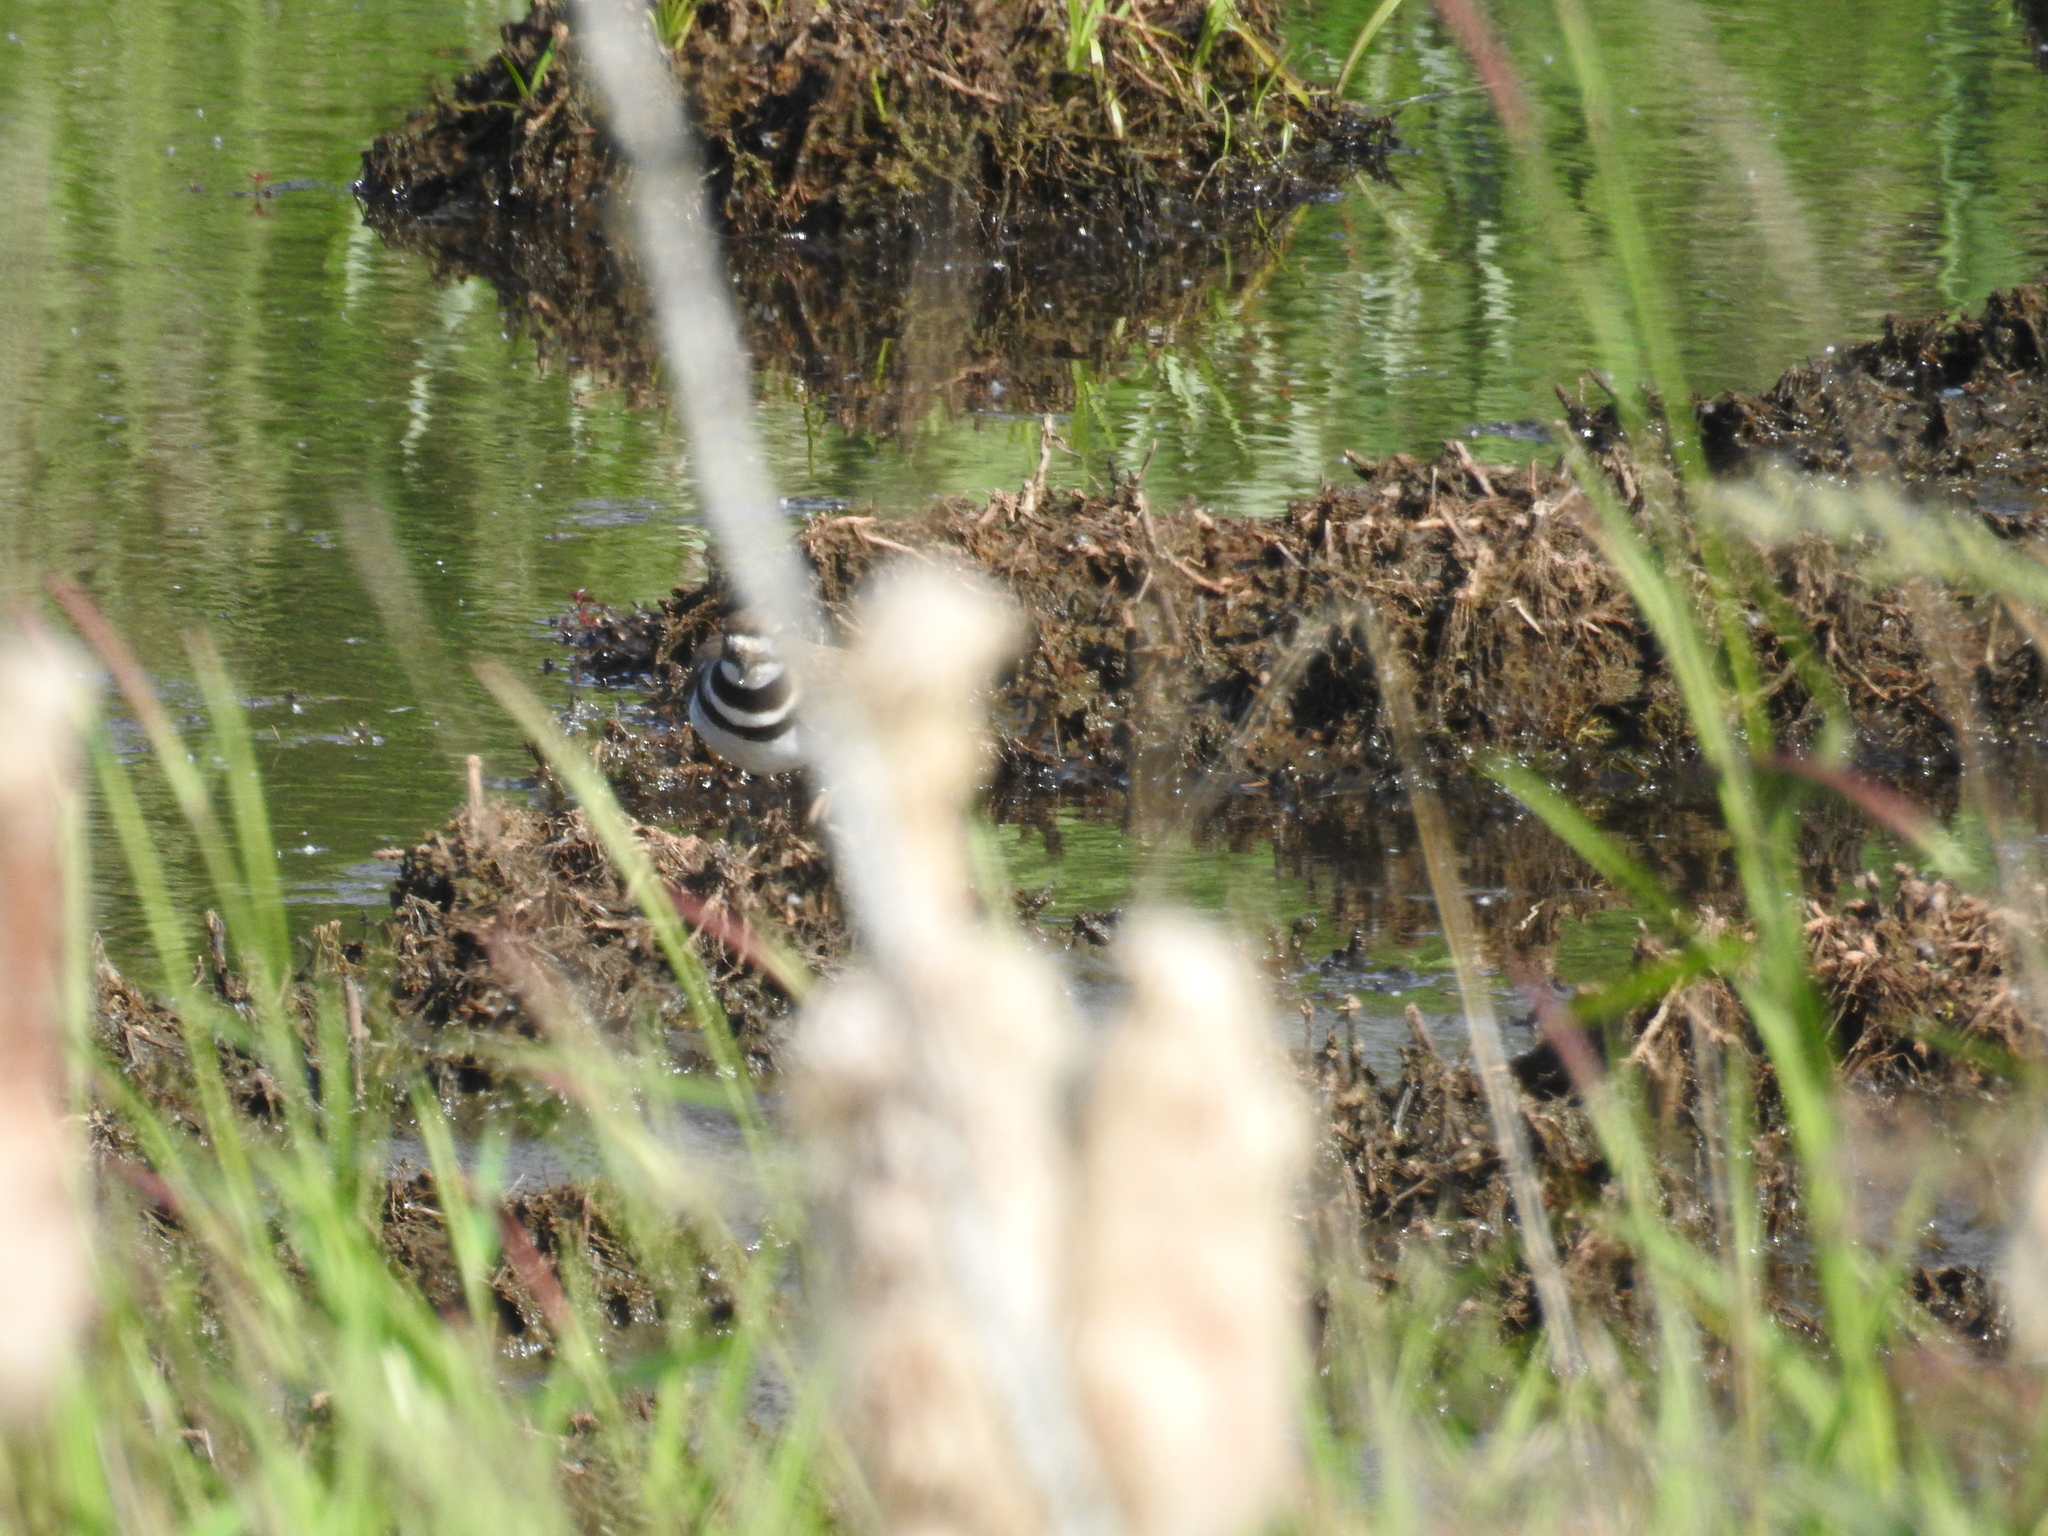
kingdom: Animalia
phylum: Chordata
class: Aves
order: Charadriiformes
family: Charadriidae
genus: Charadrius
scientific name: Charadrius vociferus
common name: Killdeer
